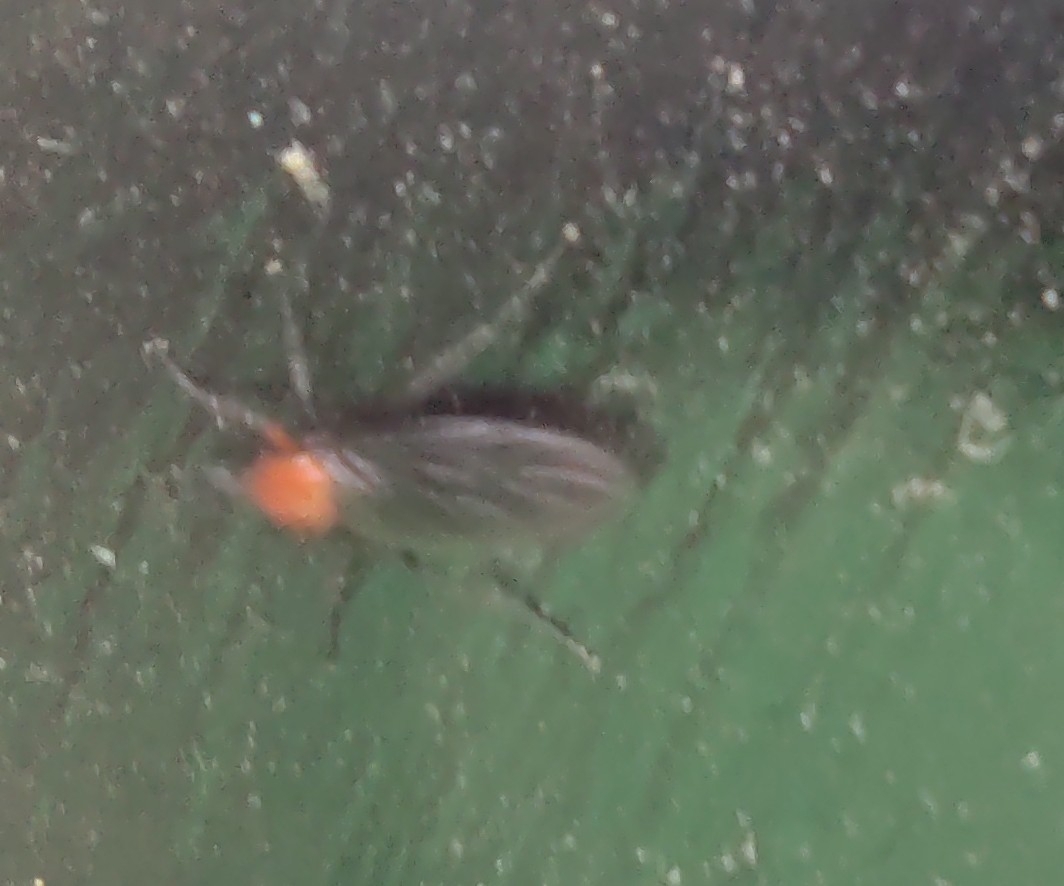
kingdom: Animalia
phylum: Arthropoda
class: Insecta
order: Diptera
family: Bibionidae
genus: Dilophus
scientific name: Dilophus pectoralis
